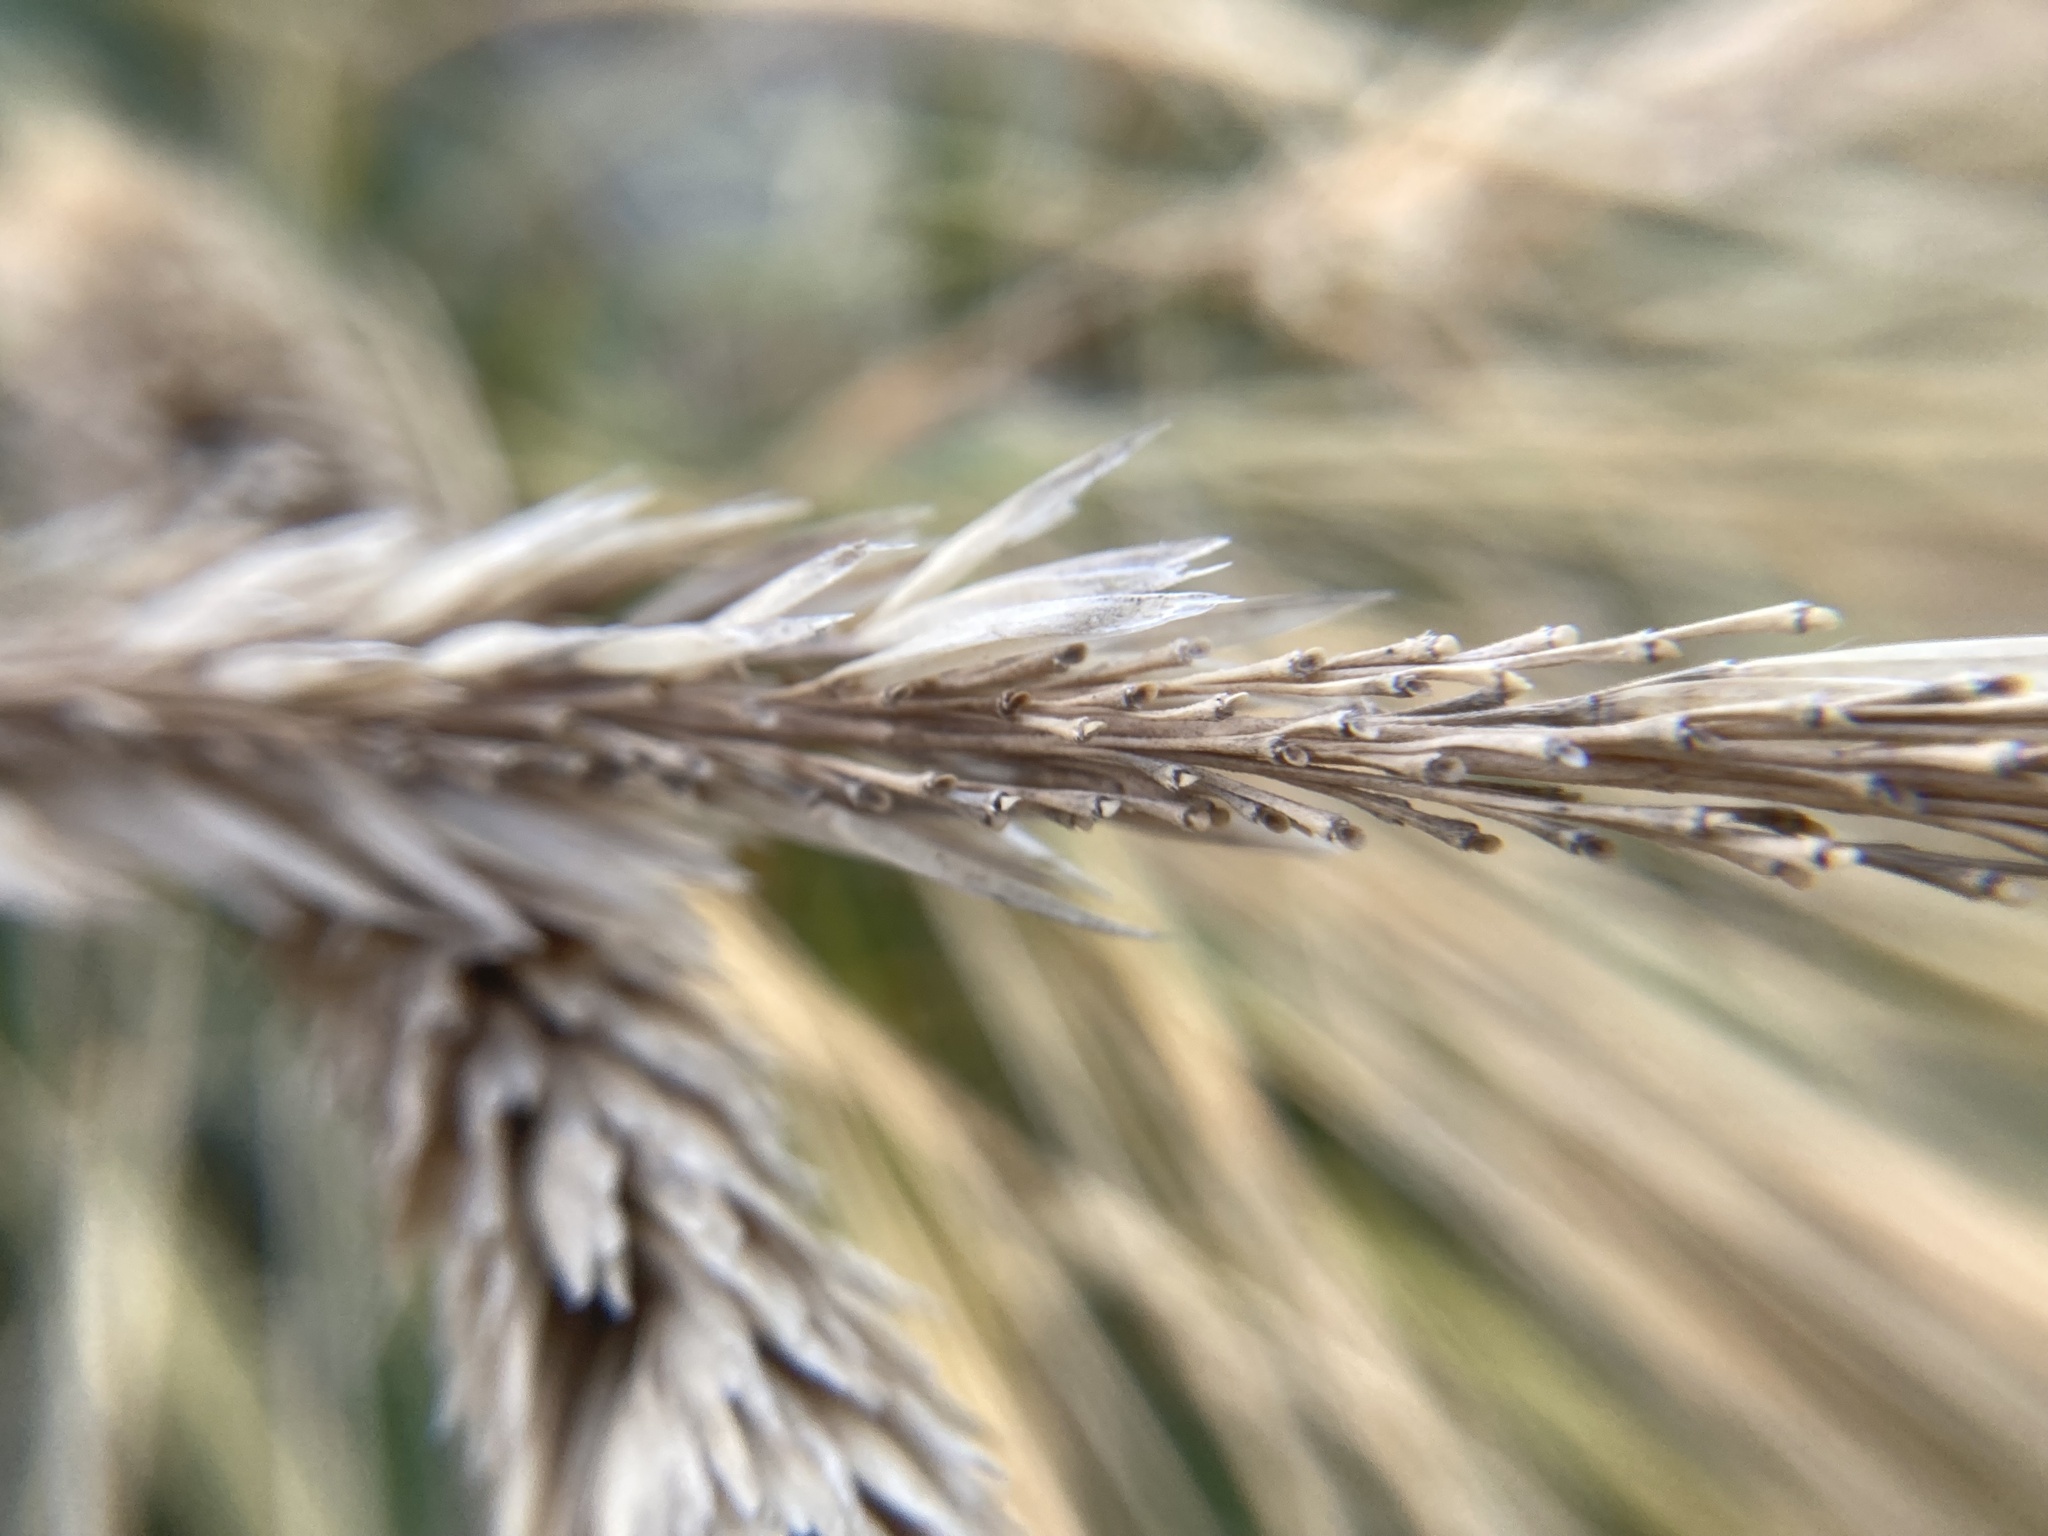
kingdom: Plantae
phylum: Tracheophyta
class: Liliopsida
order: Poales
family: Poaceae
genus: Calamagrostis
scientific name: Calamagrostis breviligulata
